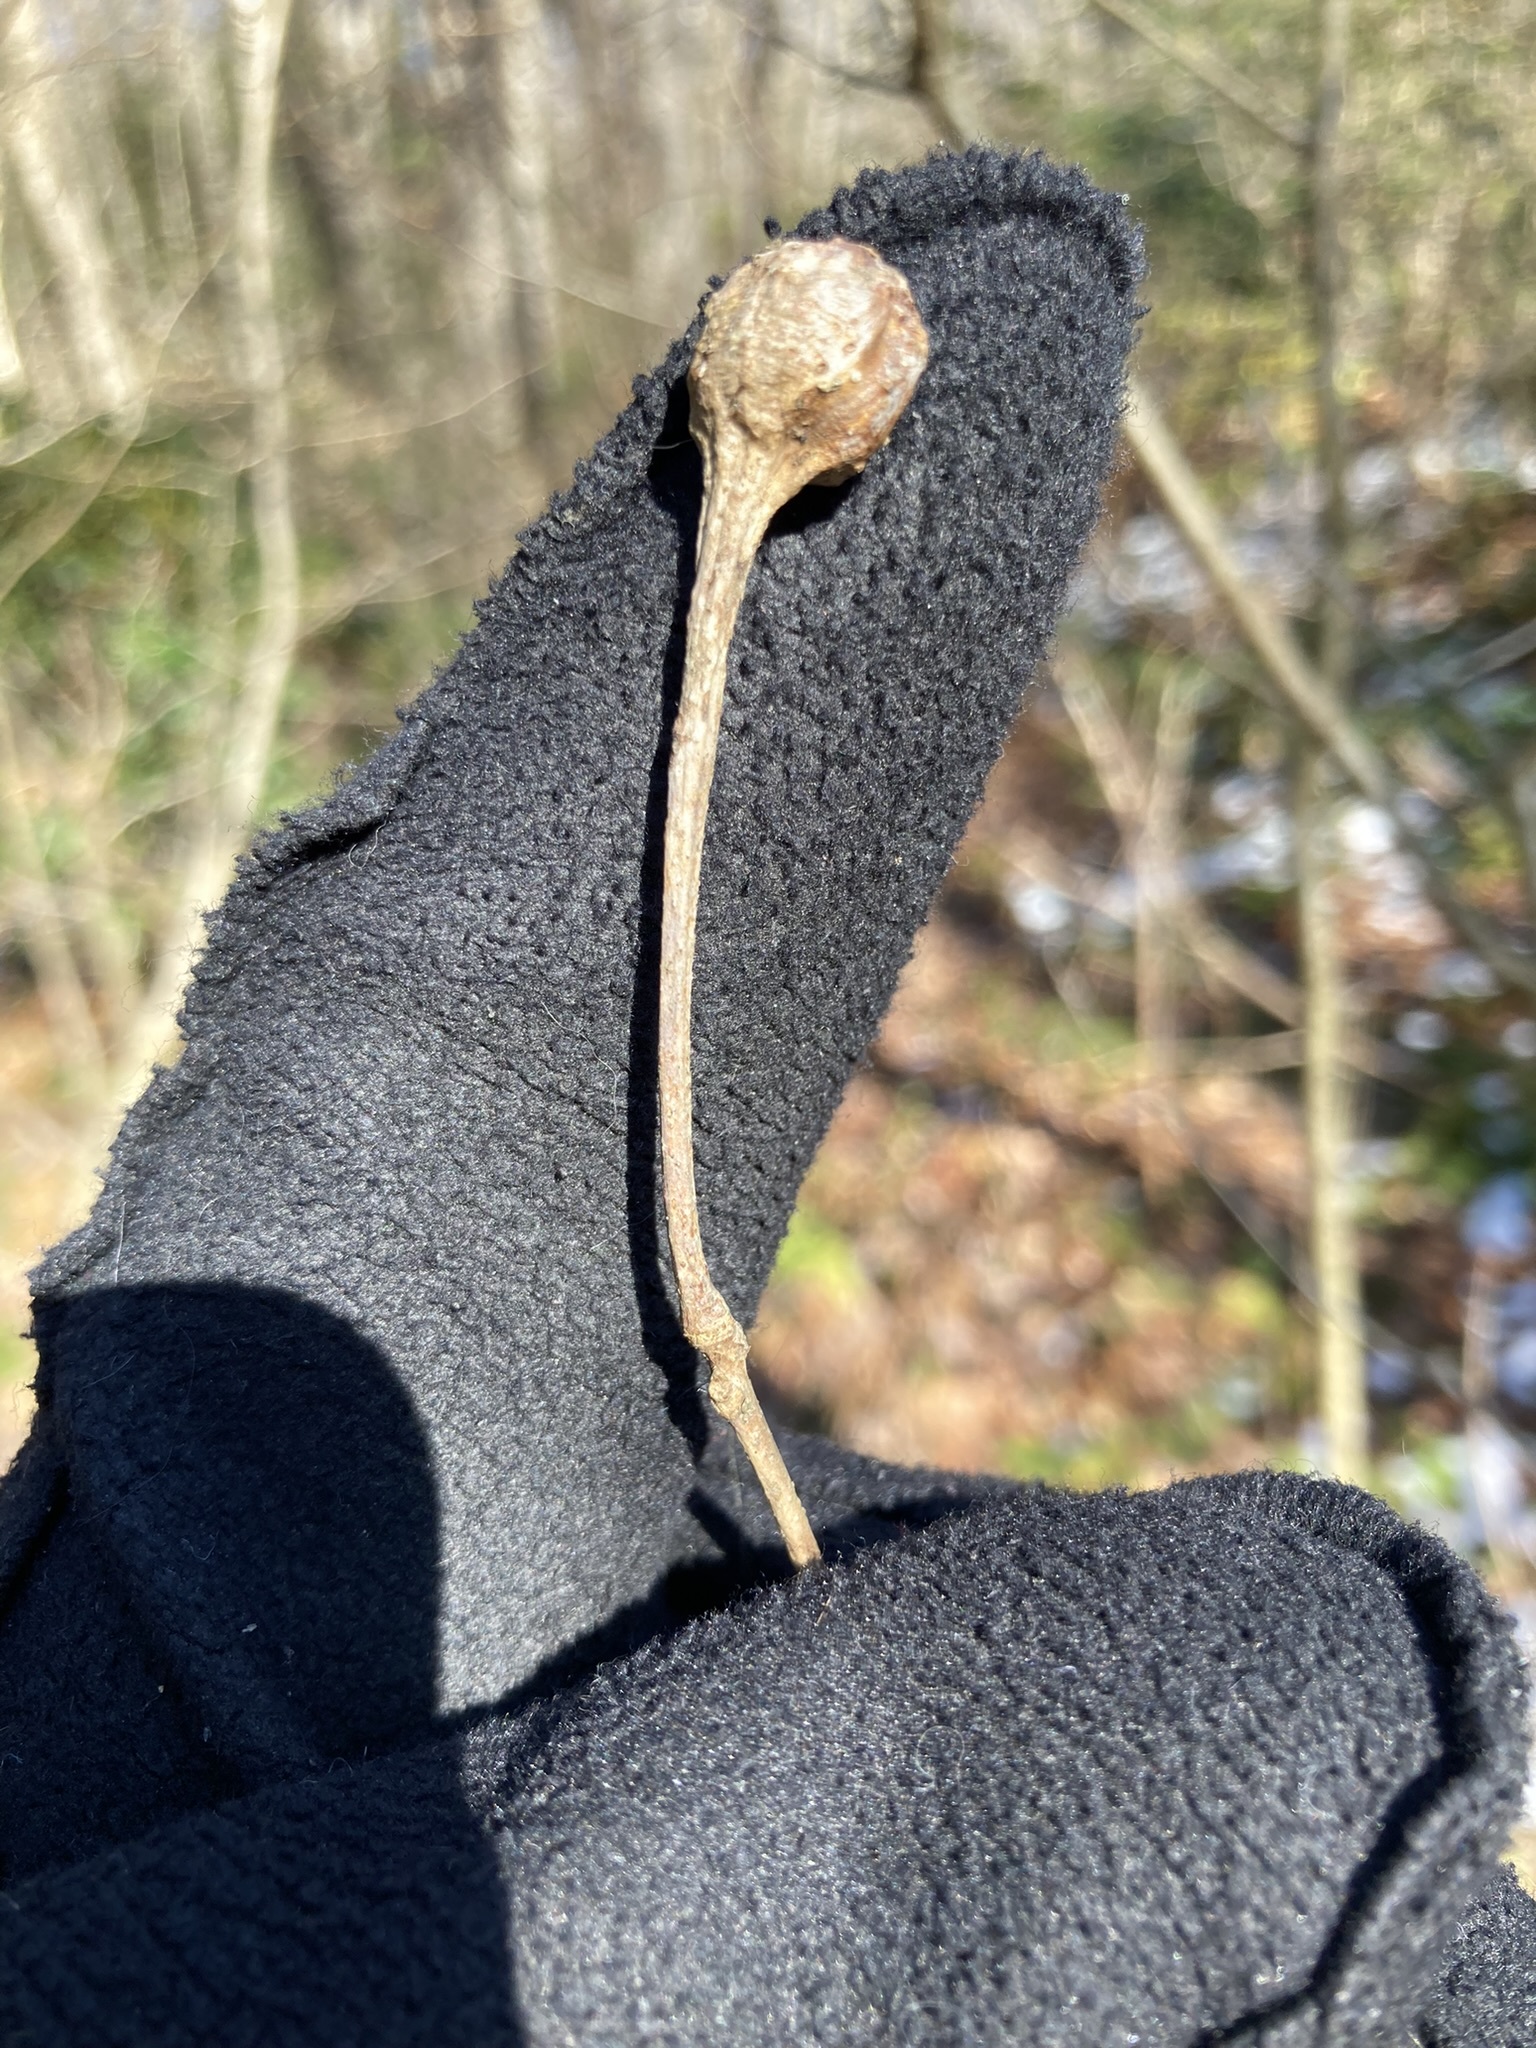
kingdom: Animalia
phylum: Arthropoda
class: Insecta
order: Hymenoptera
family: Cynipidae
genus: Callirhytis
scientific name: Callirhytis clavula
